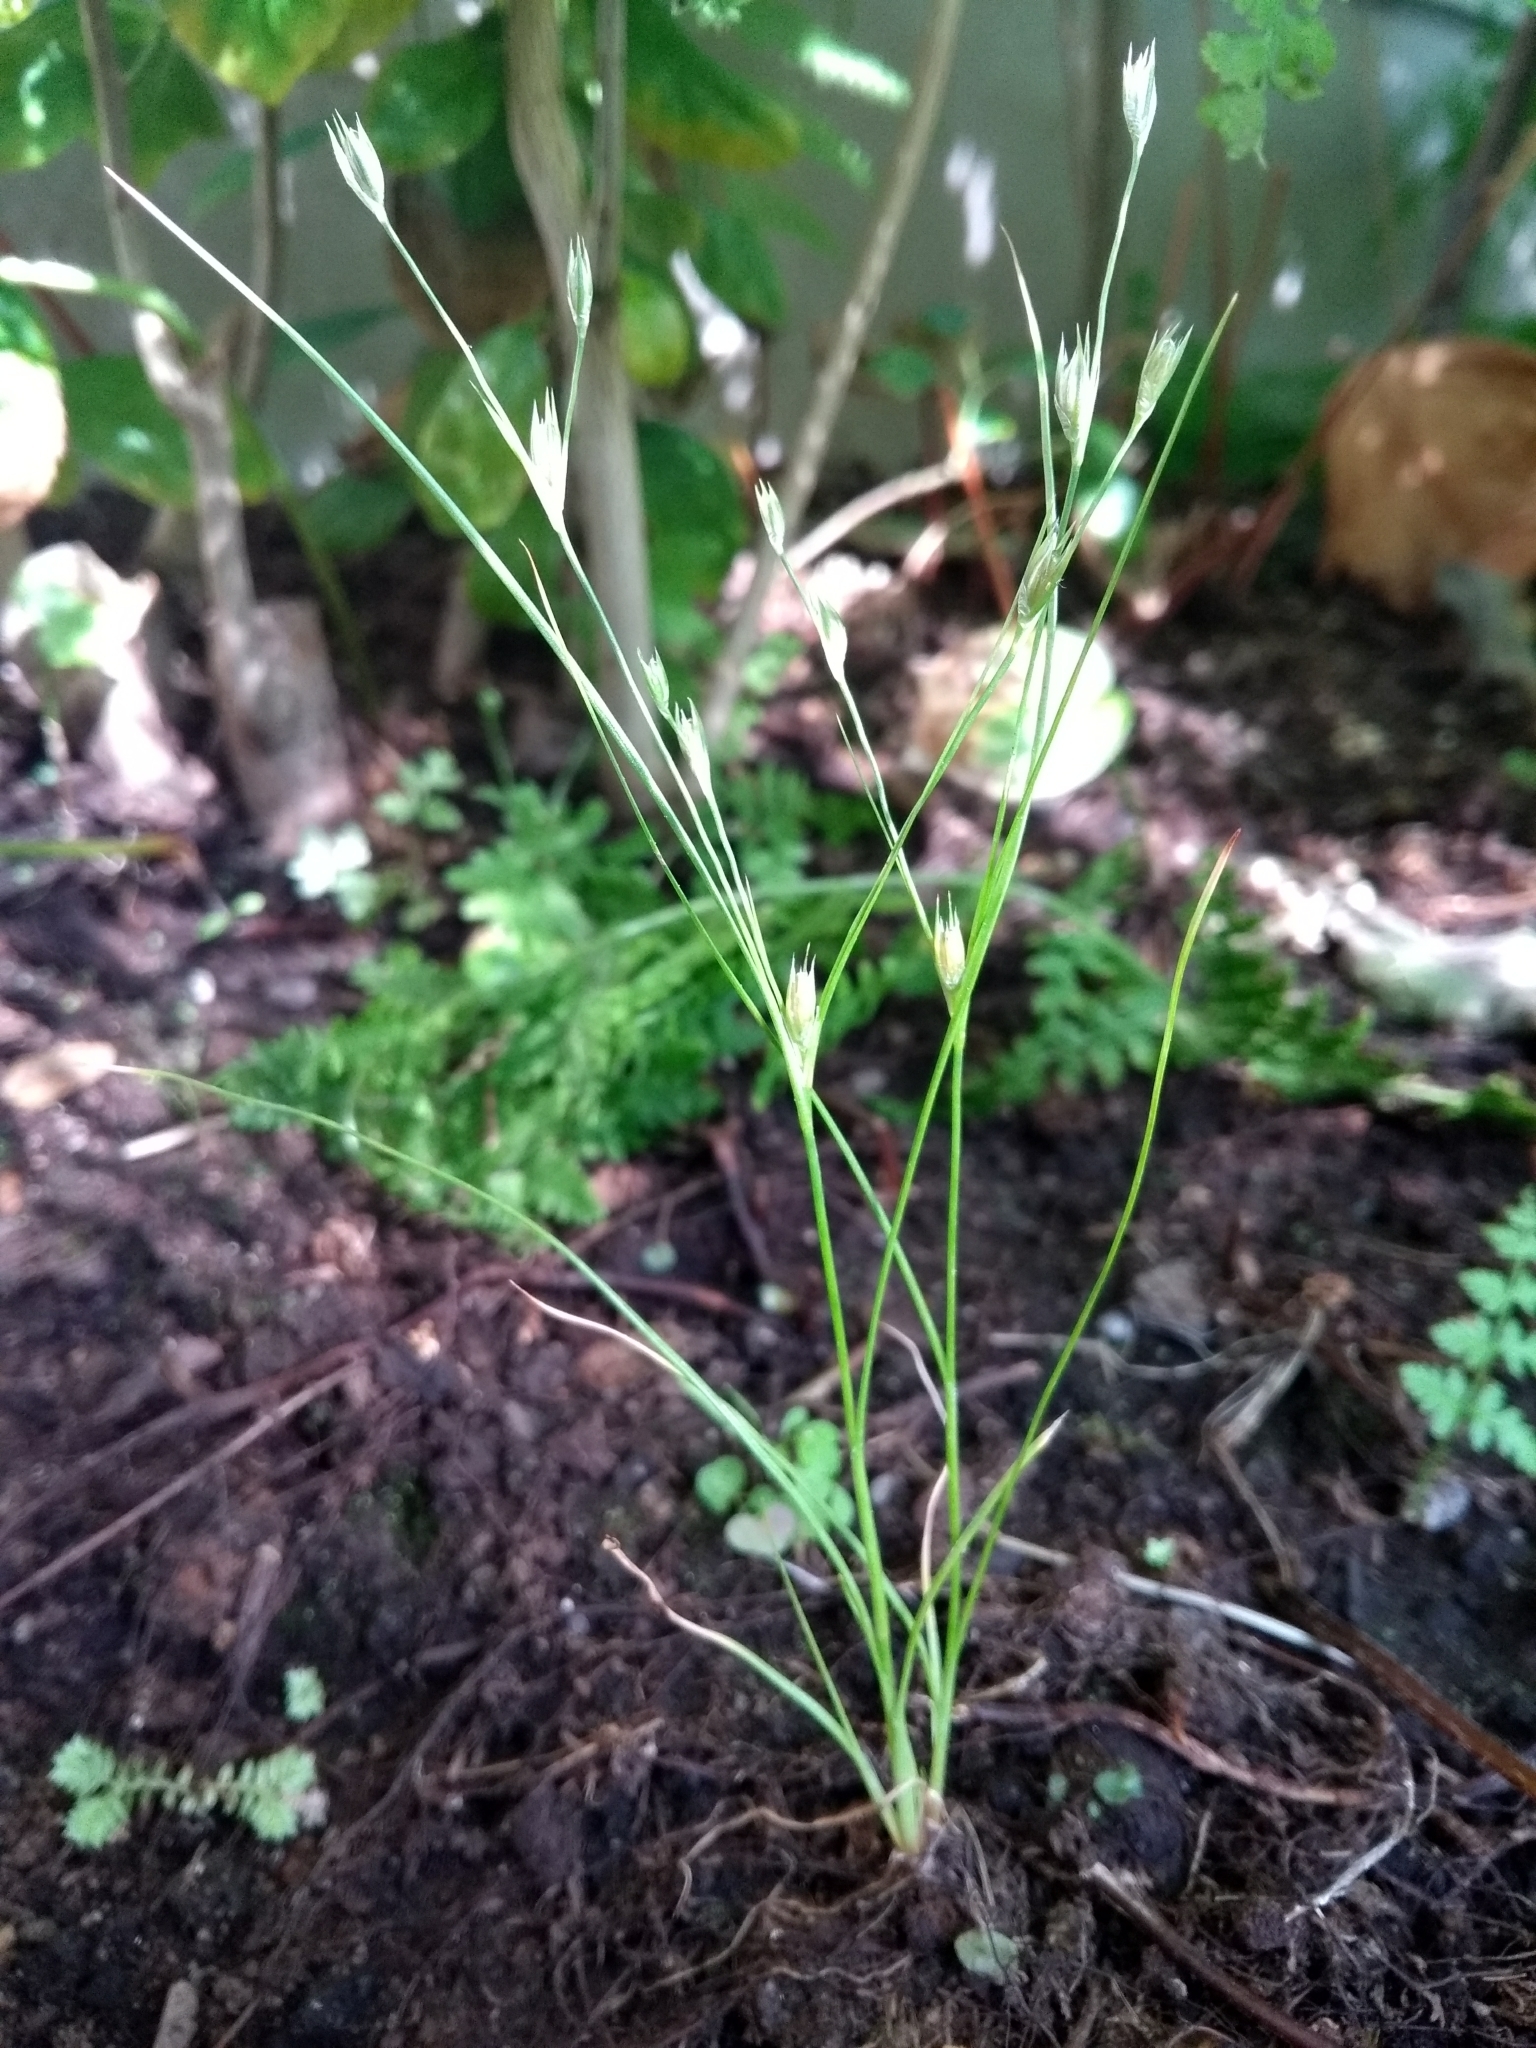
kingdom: Plantae
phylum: Tracheophyta
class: Liliopsida
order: Poales
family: Juncaceae
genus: Juncus
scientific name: Juncus bufonius
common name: Toad rush
